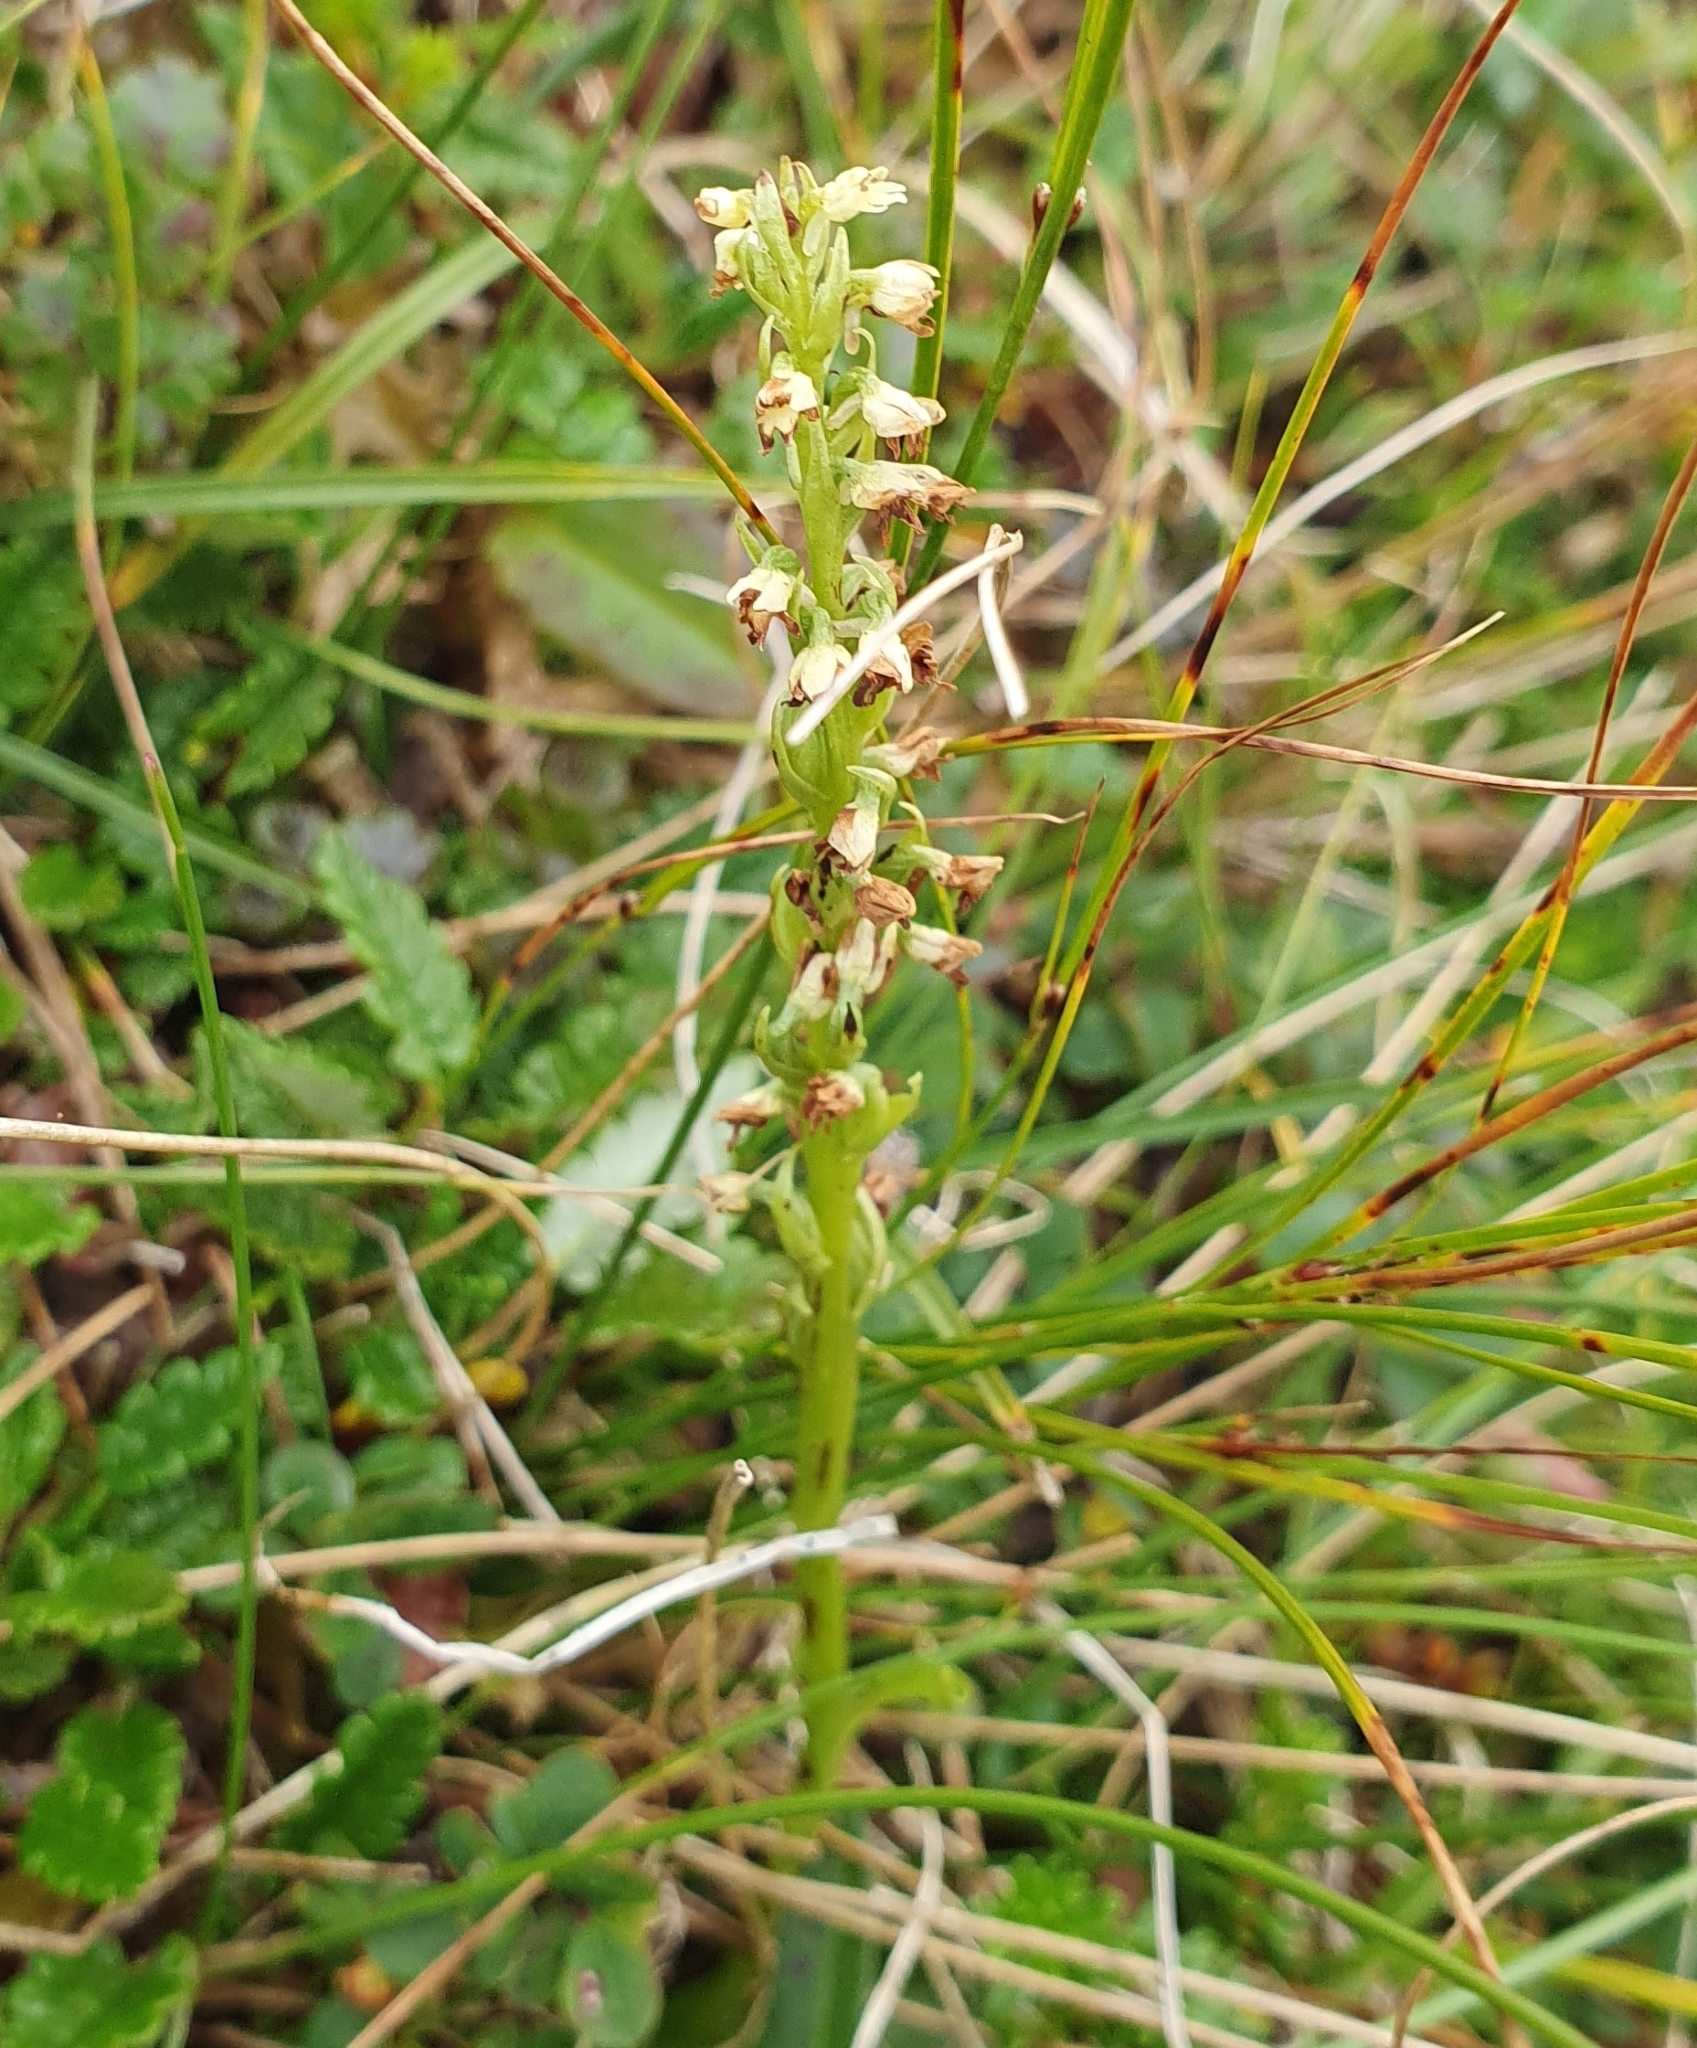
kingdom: Plantae
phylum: Tracheophyta
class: Liliopsida
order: Asparagales
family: Orchidaceae
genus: Pseudorchis
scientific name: Pseudorchis straminea
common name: Vanilla-scented bog orchid
